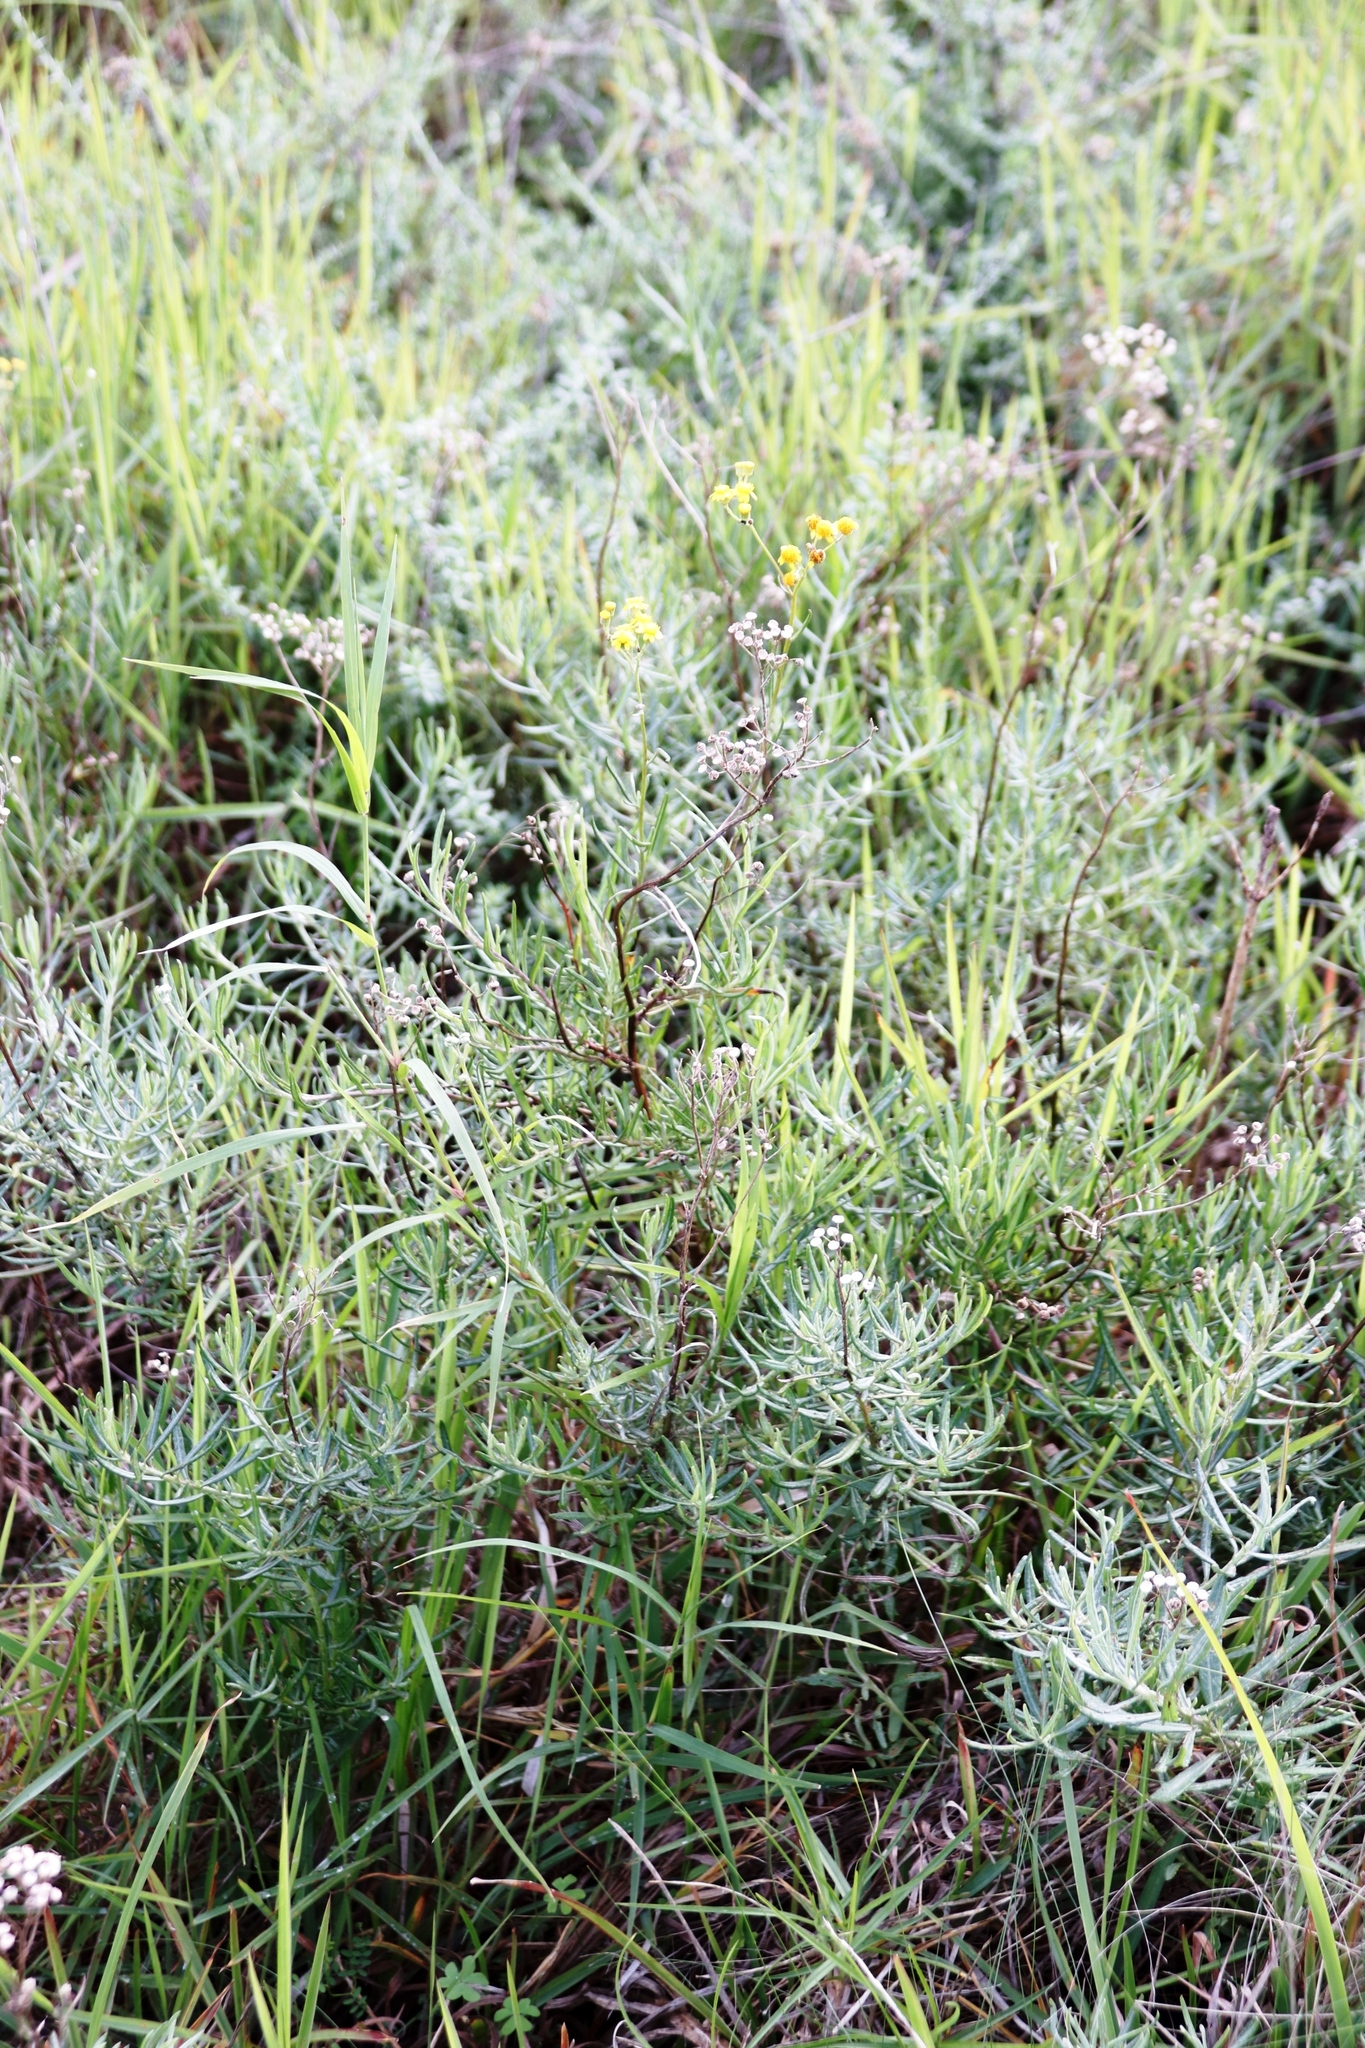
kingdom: Plantae
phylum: Tracheophyta
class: Magnoliopsida
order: Asterales
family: Asteraceae
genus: Senecio
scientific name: Senecio pterophorus
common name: Shoddy ragwort
